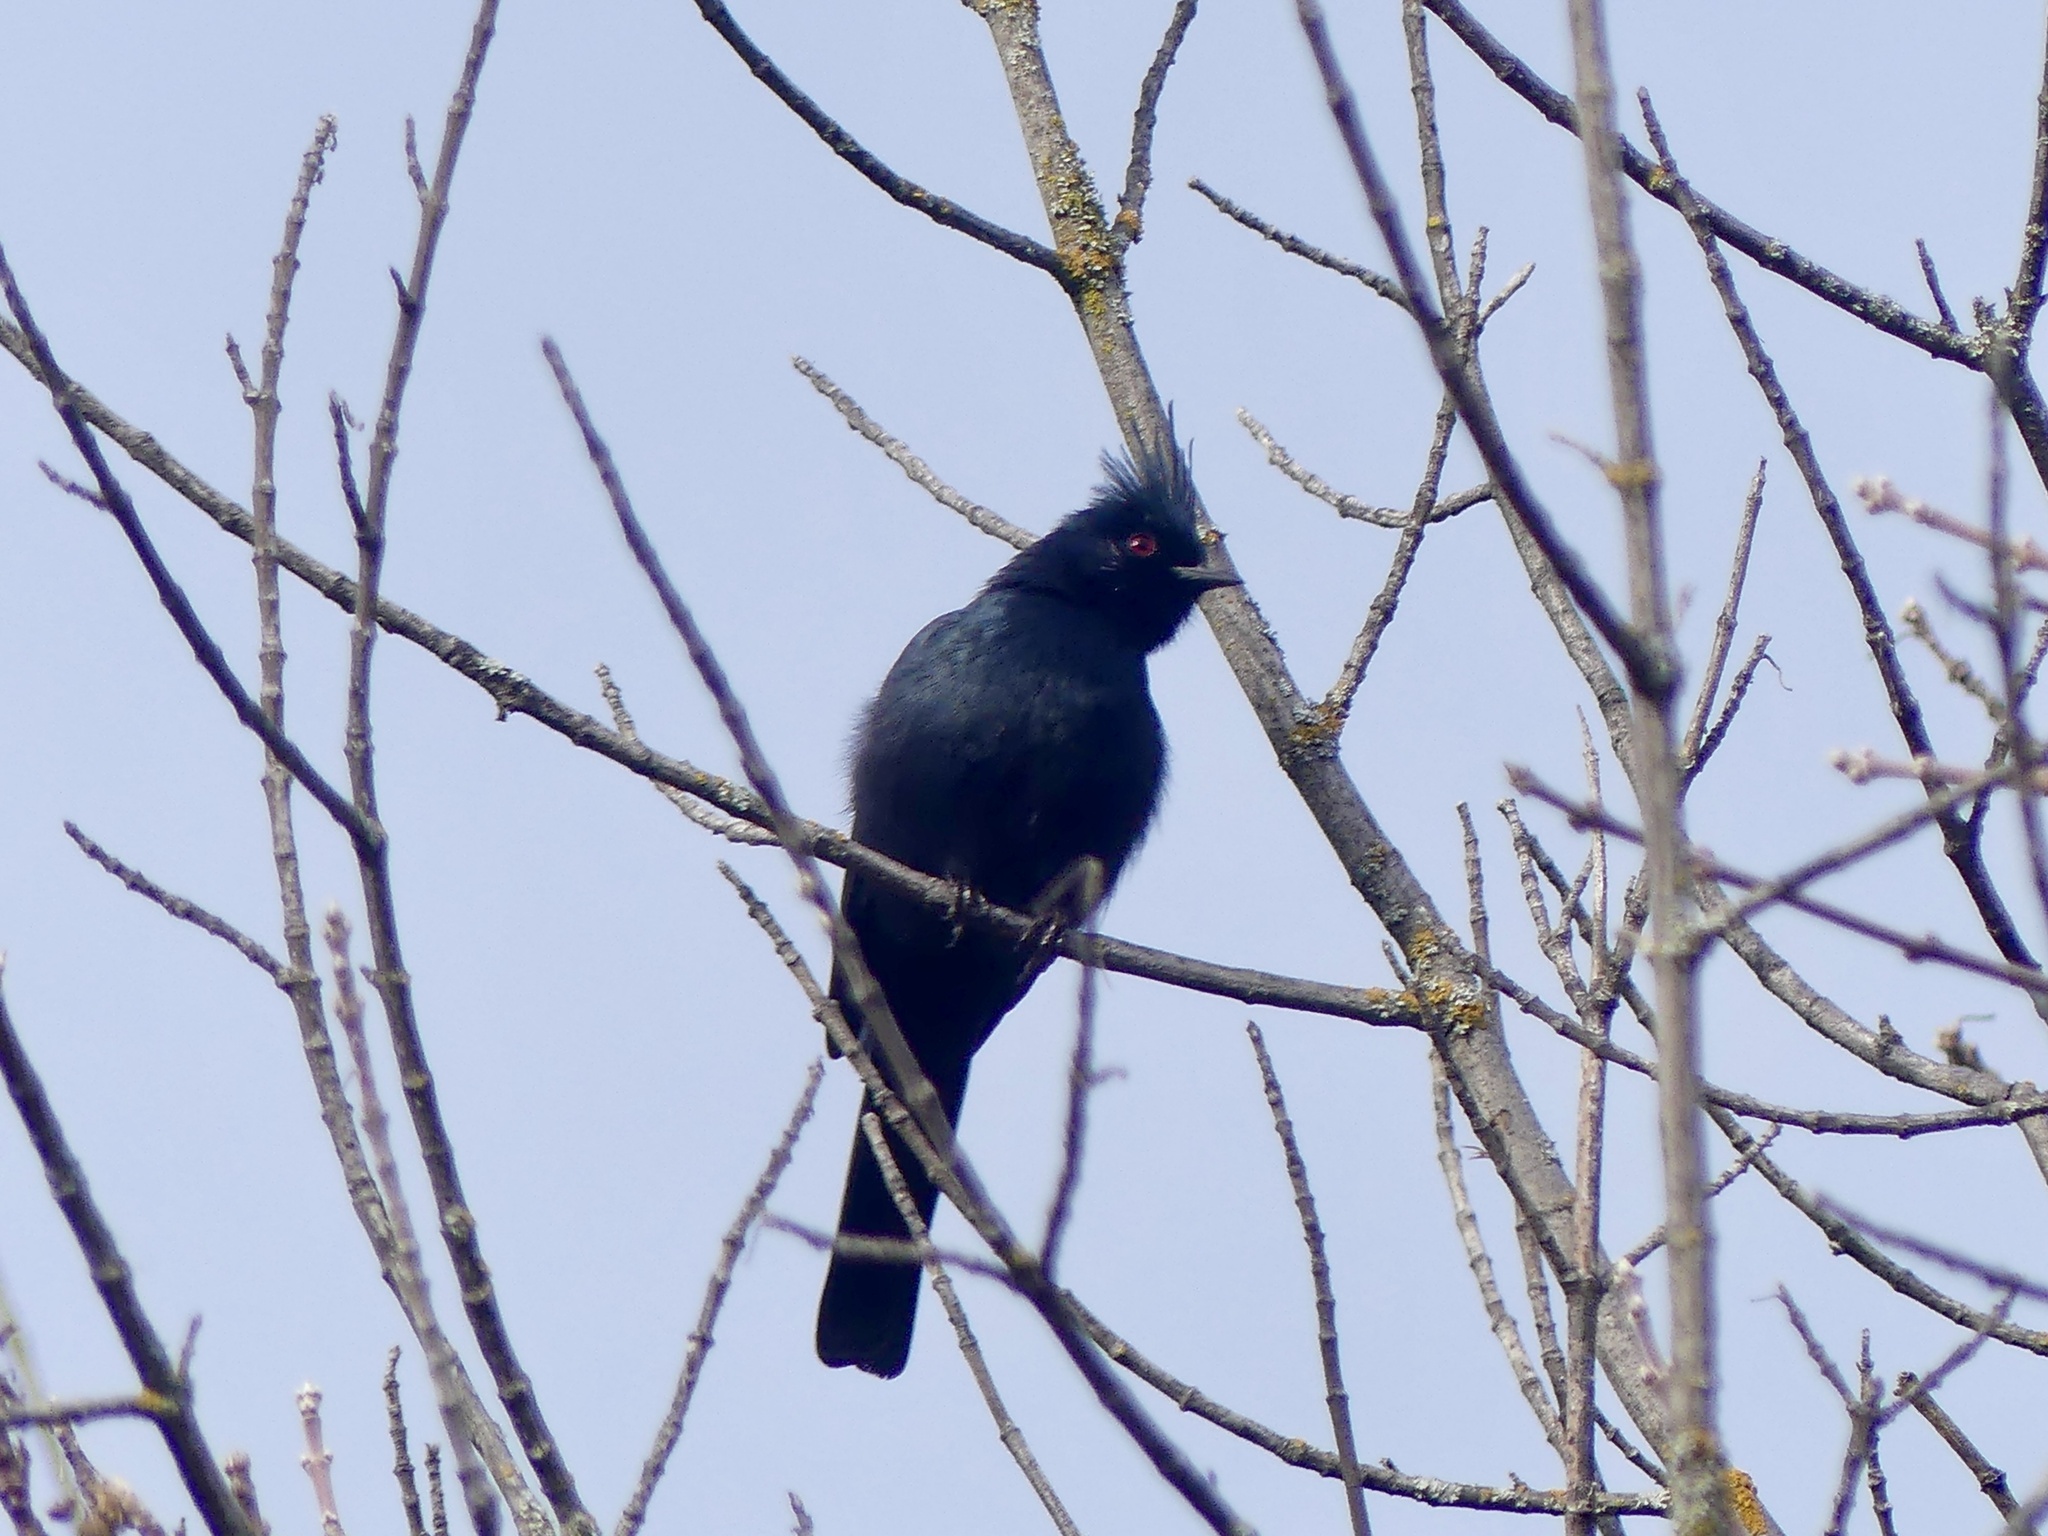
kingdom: Animalia
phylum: Chordata
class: Aves
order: Passeriformes
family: Ptilogonatidae
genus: Phainopepla
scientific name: Phainopepla nitens
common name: Phainopepla
